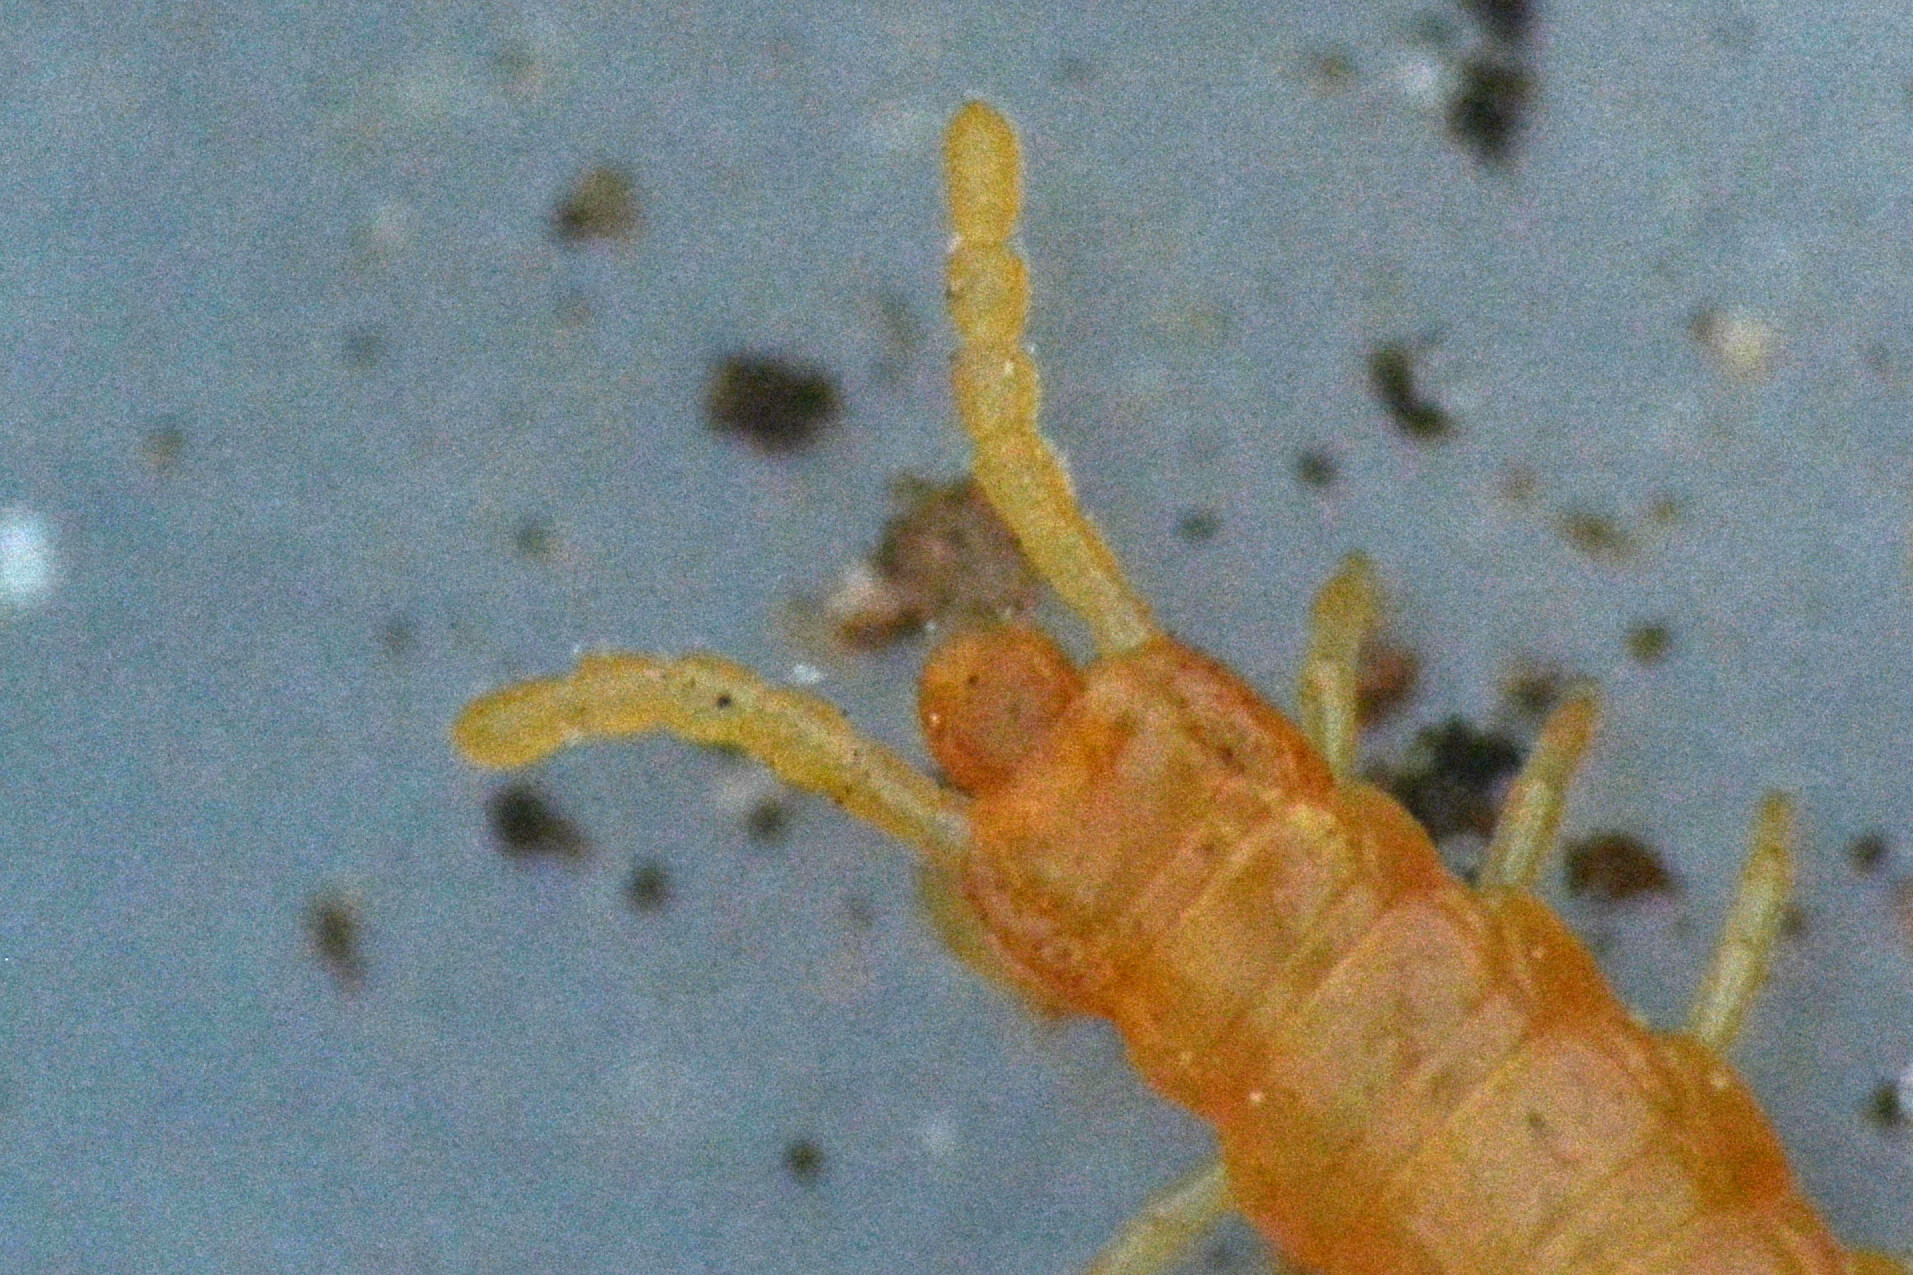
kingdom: Animalia
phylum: Arthropoda
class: Chilopoda
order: Geophilomorpha
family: Himantariidae
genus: Stigmatogaster
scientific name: Stigmatogaster subterranea
